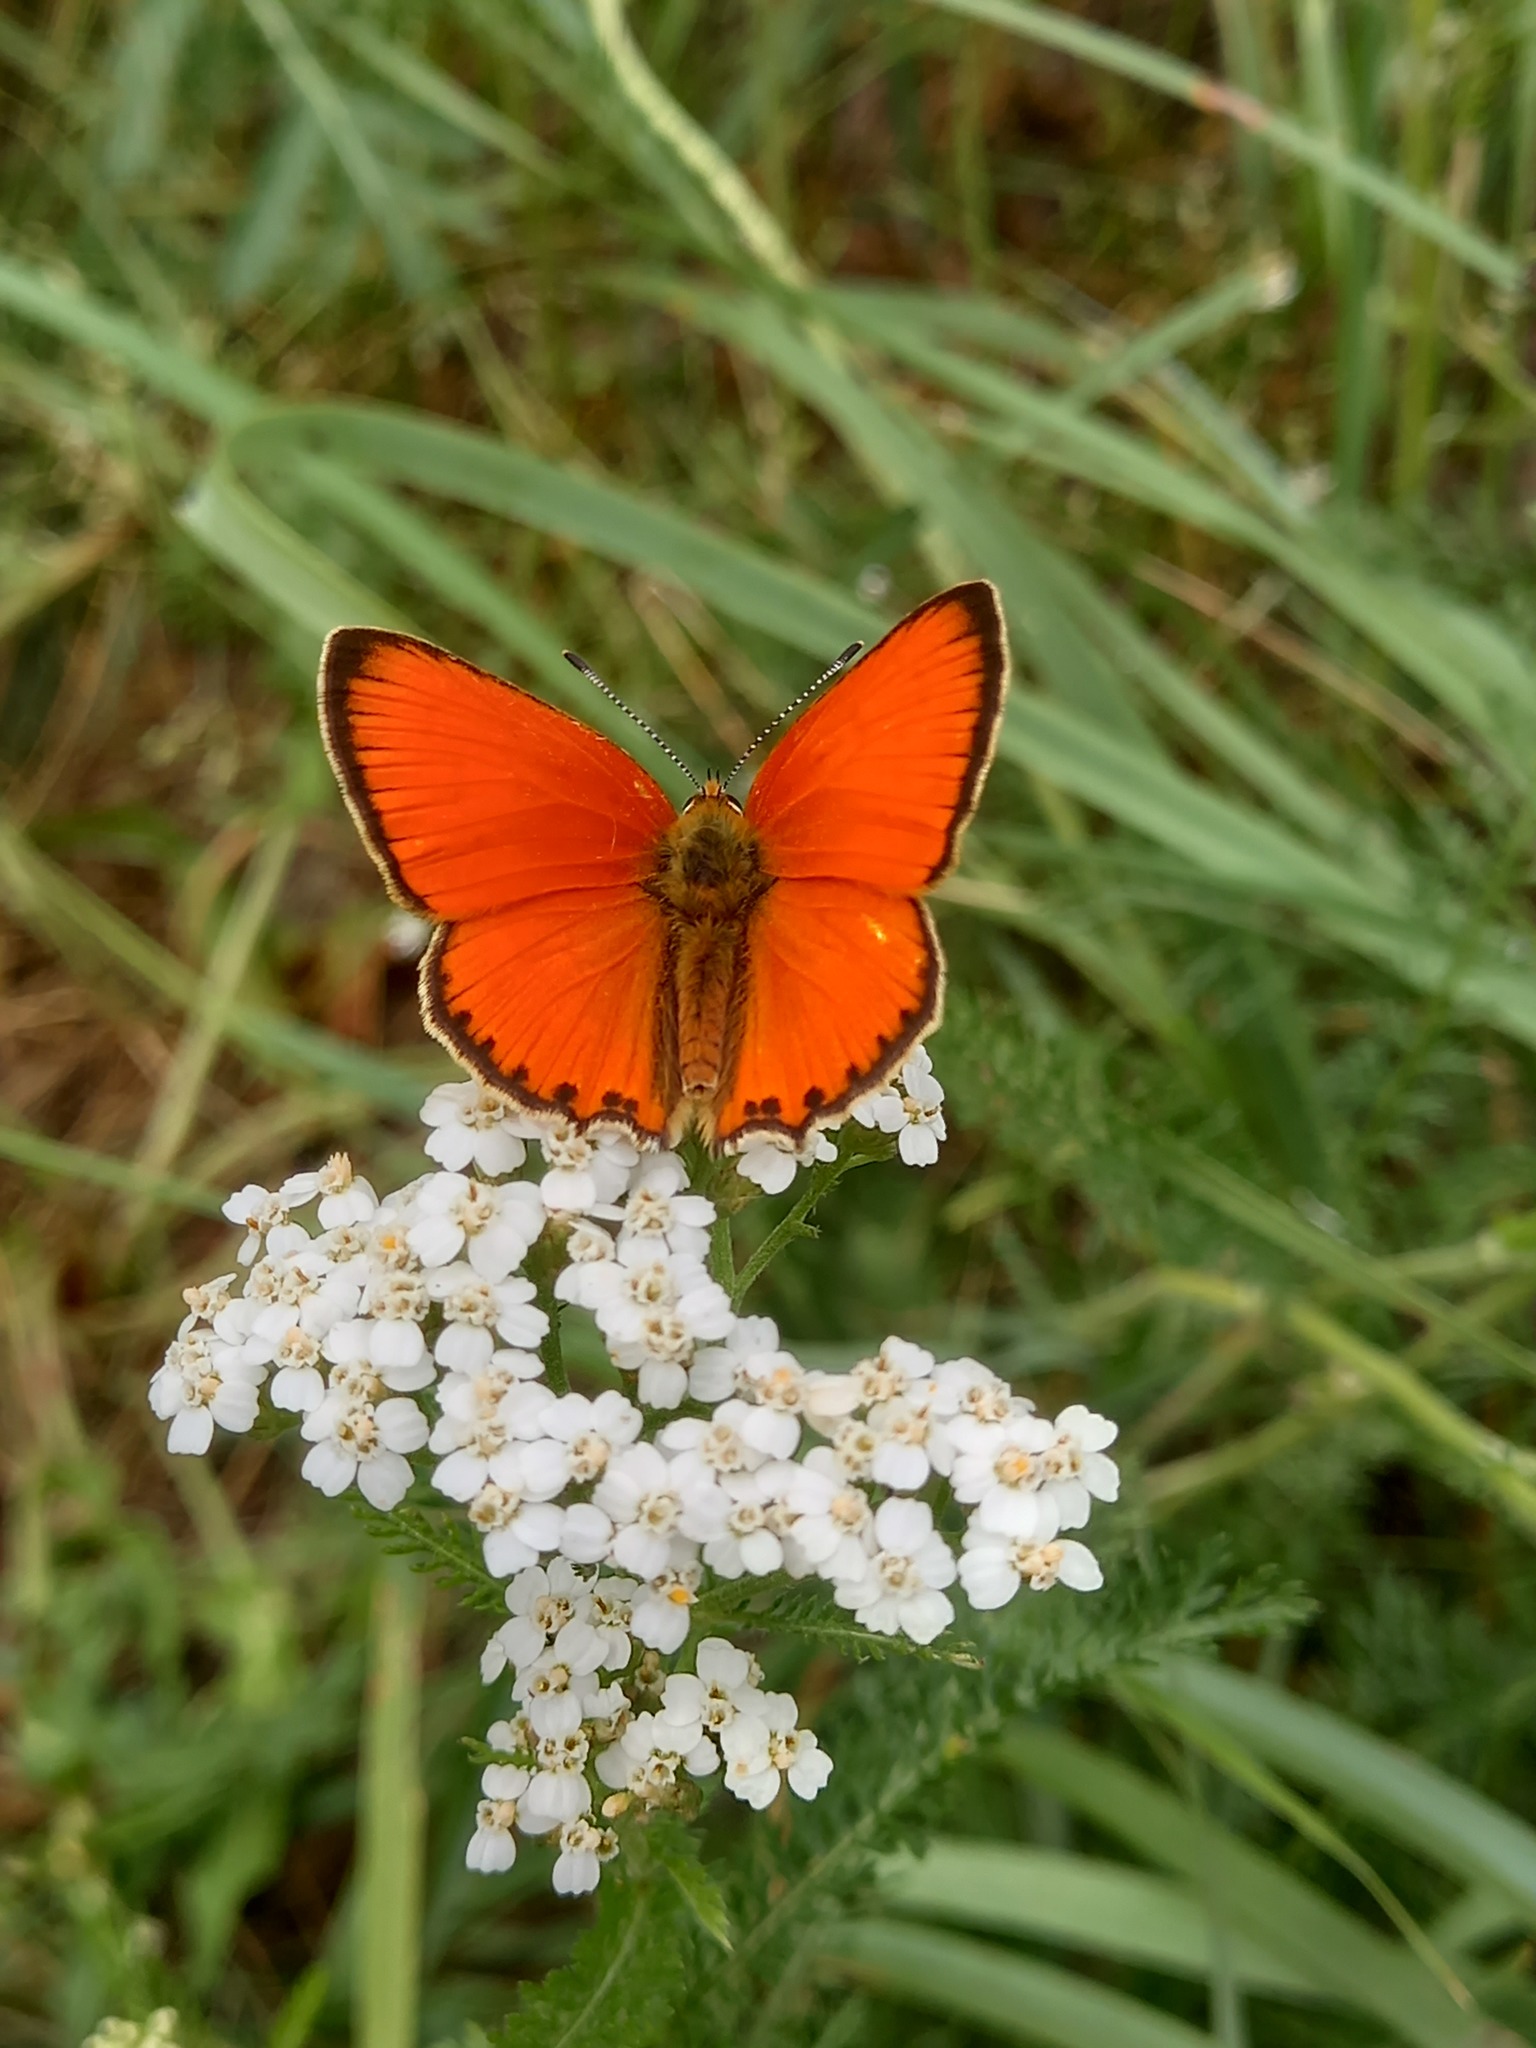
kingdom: Animalia
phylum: Arthropoda
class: Insecta
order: Lepidoptera
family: Lycaenidae
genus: Lycaena
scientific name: Lycaena virgaureae
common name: Scarce copper
